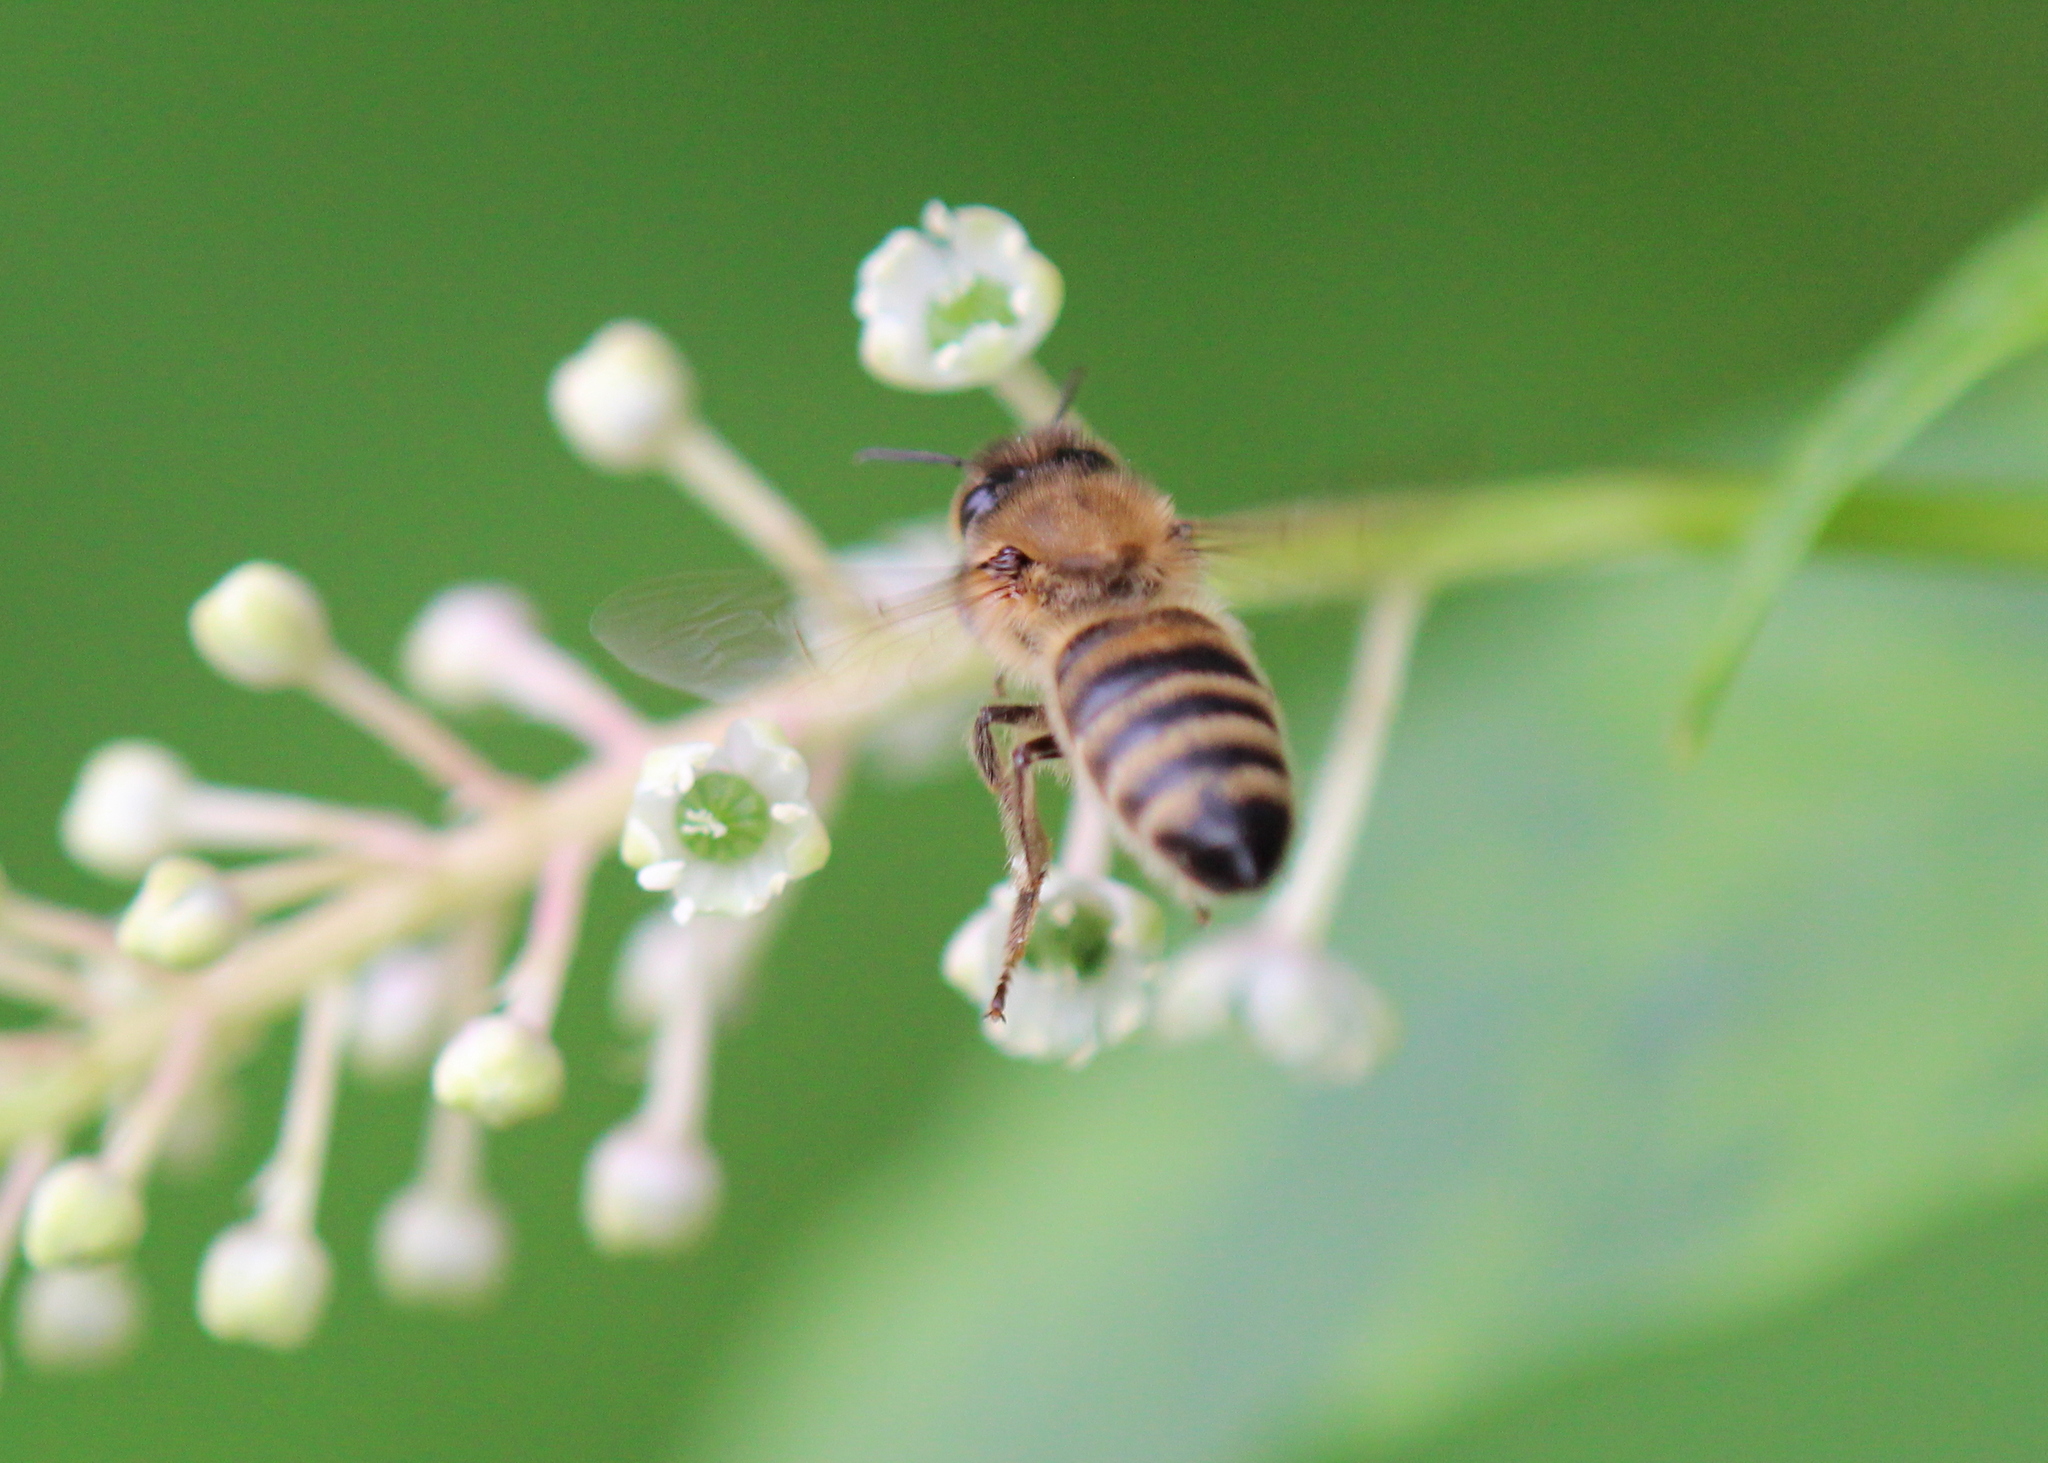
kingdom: Animalia
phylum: Arthropoda
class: Insecta
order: Hymenoptera
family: Apidae
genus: Apis
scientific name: Apis mellifera
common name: Honey bee
